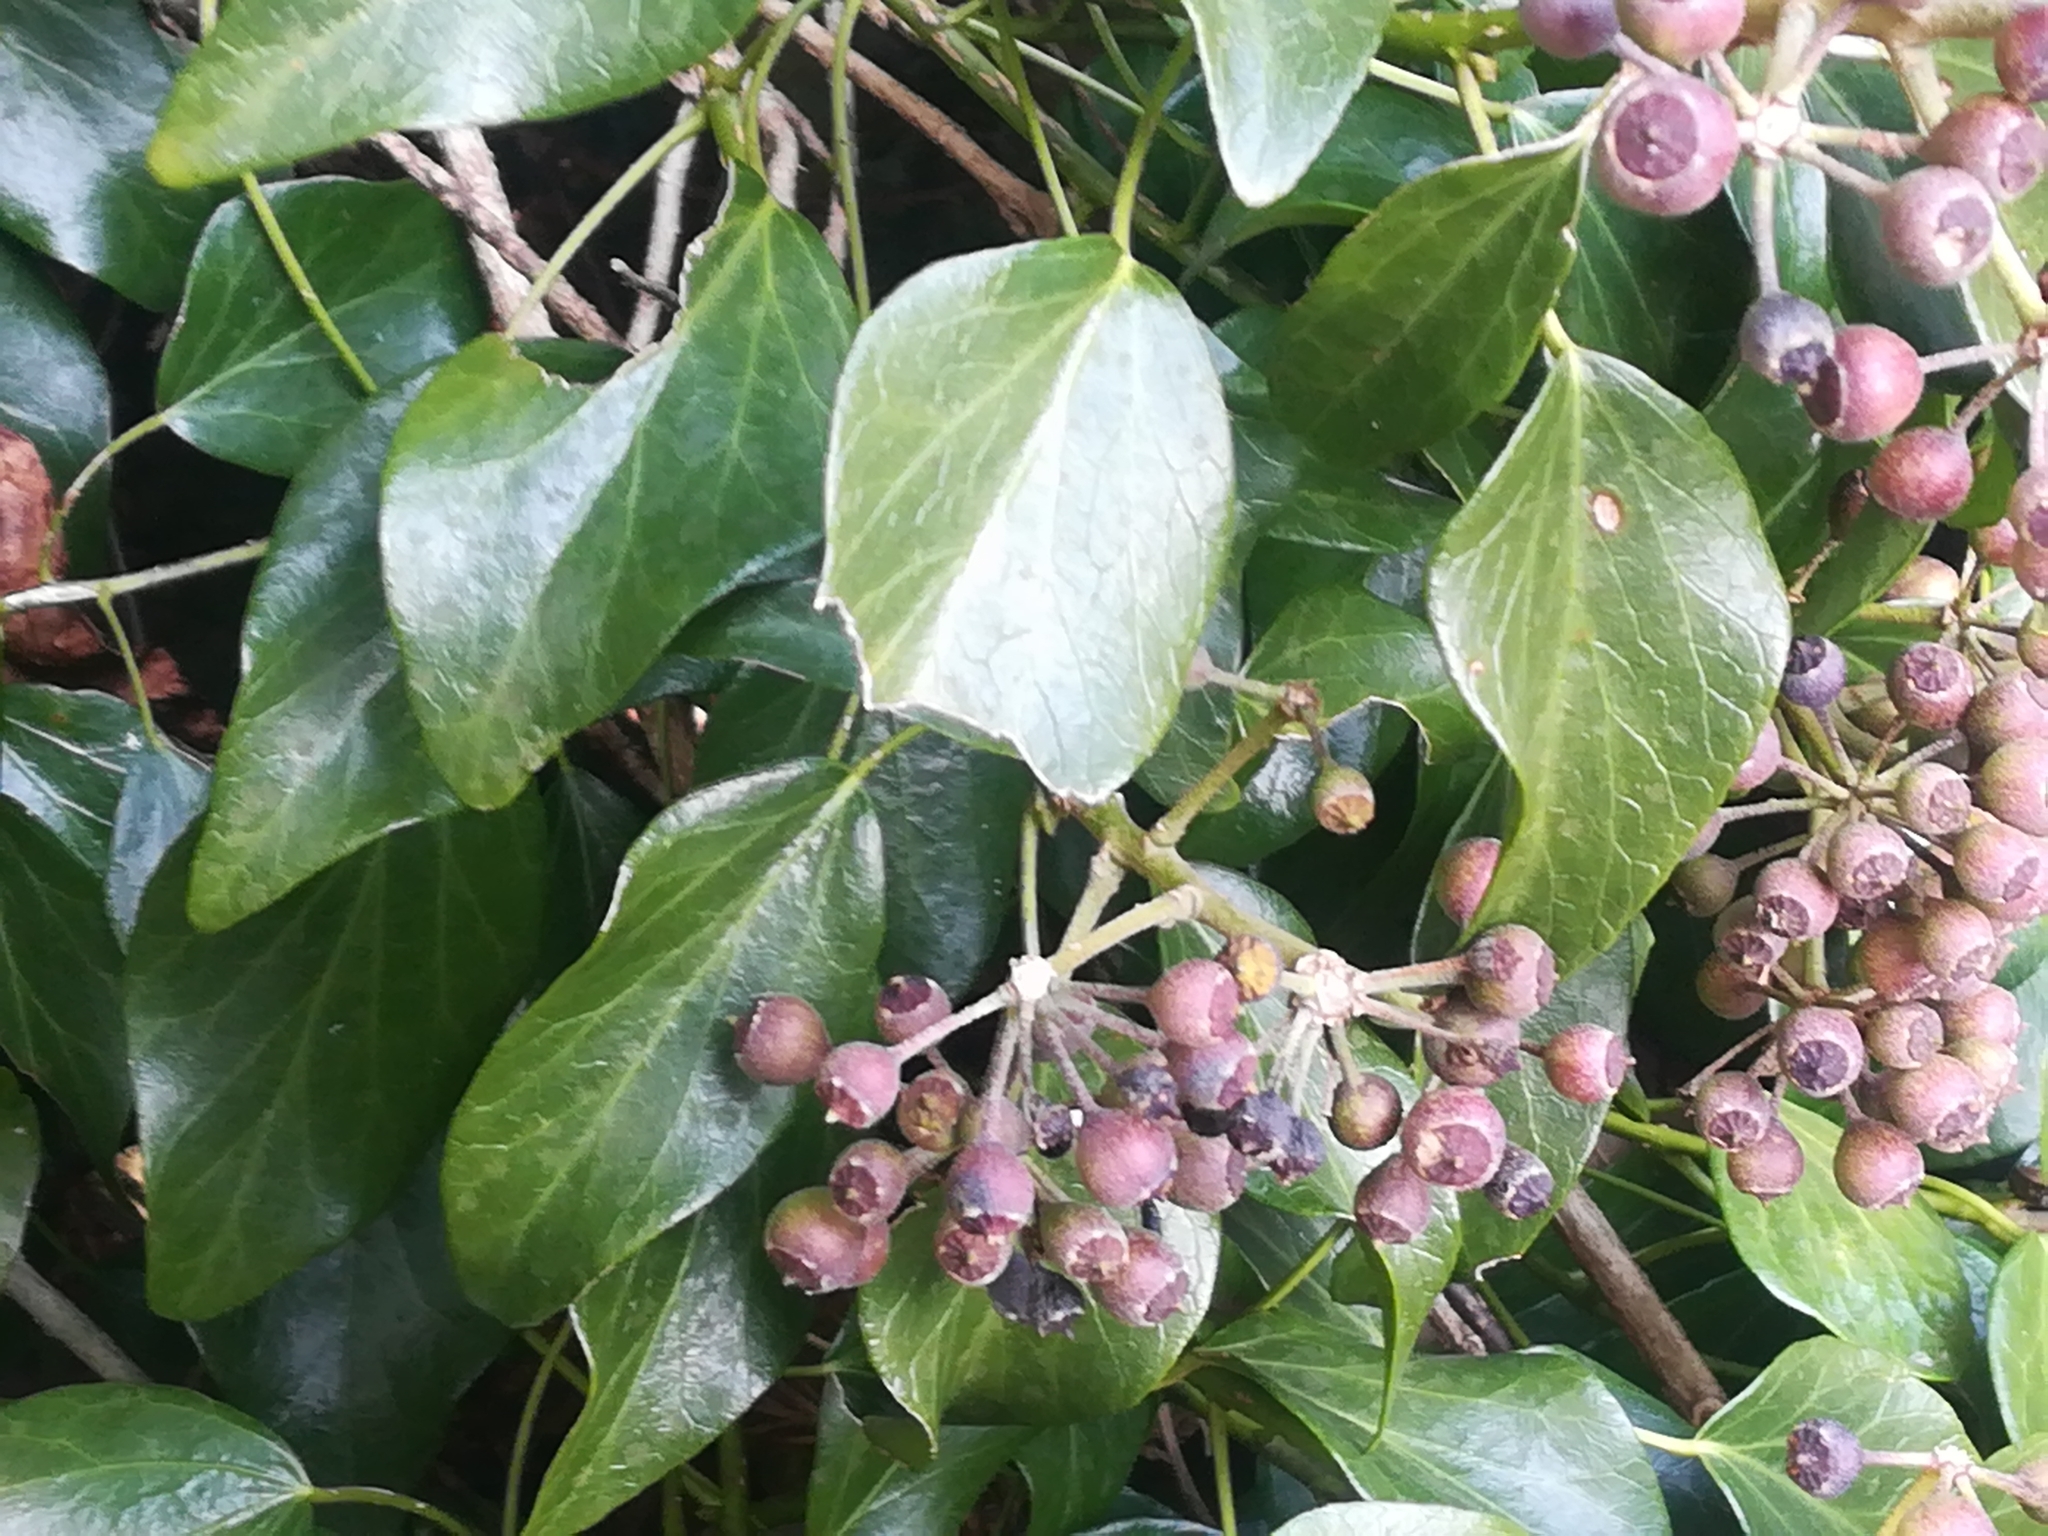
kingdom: Plantae
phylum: Tracheophyta
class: Magnoliopsida
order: Apiales
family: Araliaceae
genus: Hedera
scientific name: Hedera rhombea
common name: Japanese ivy
